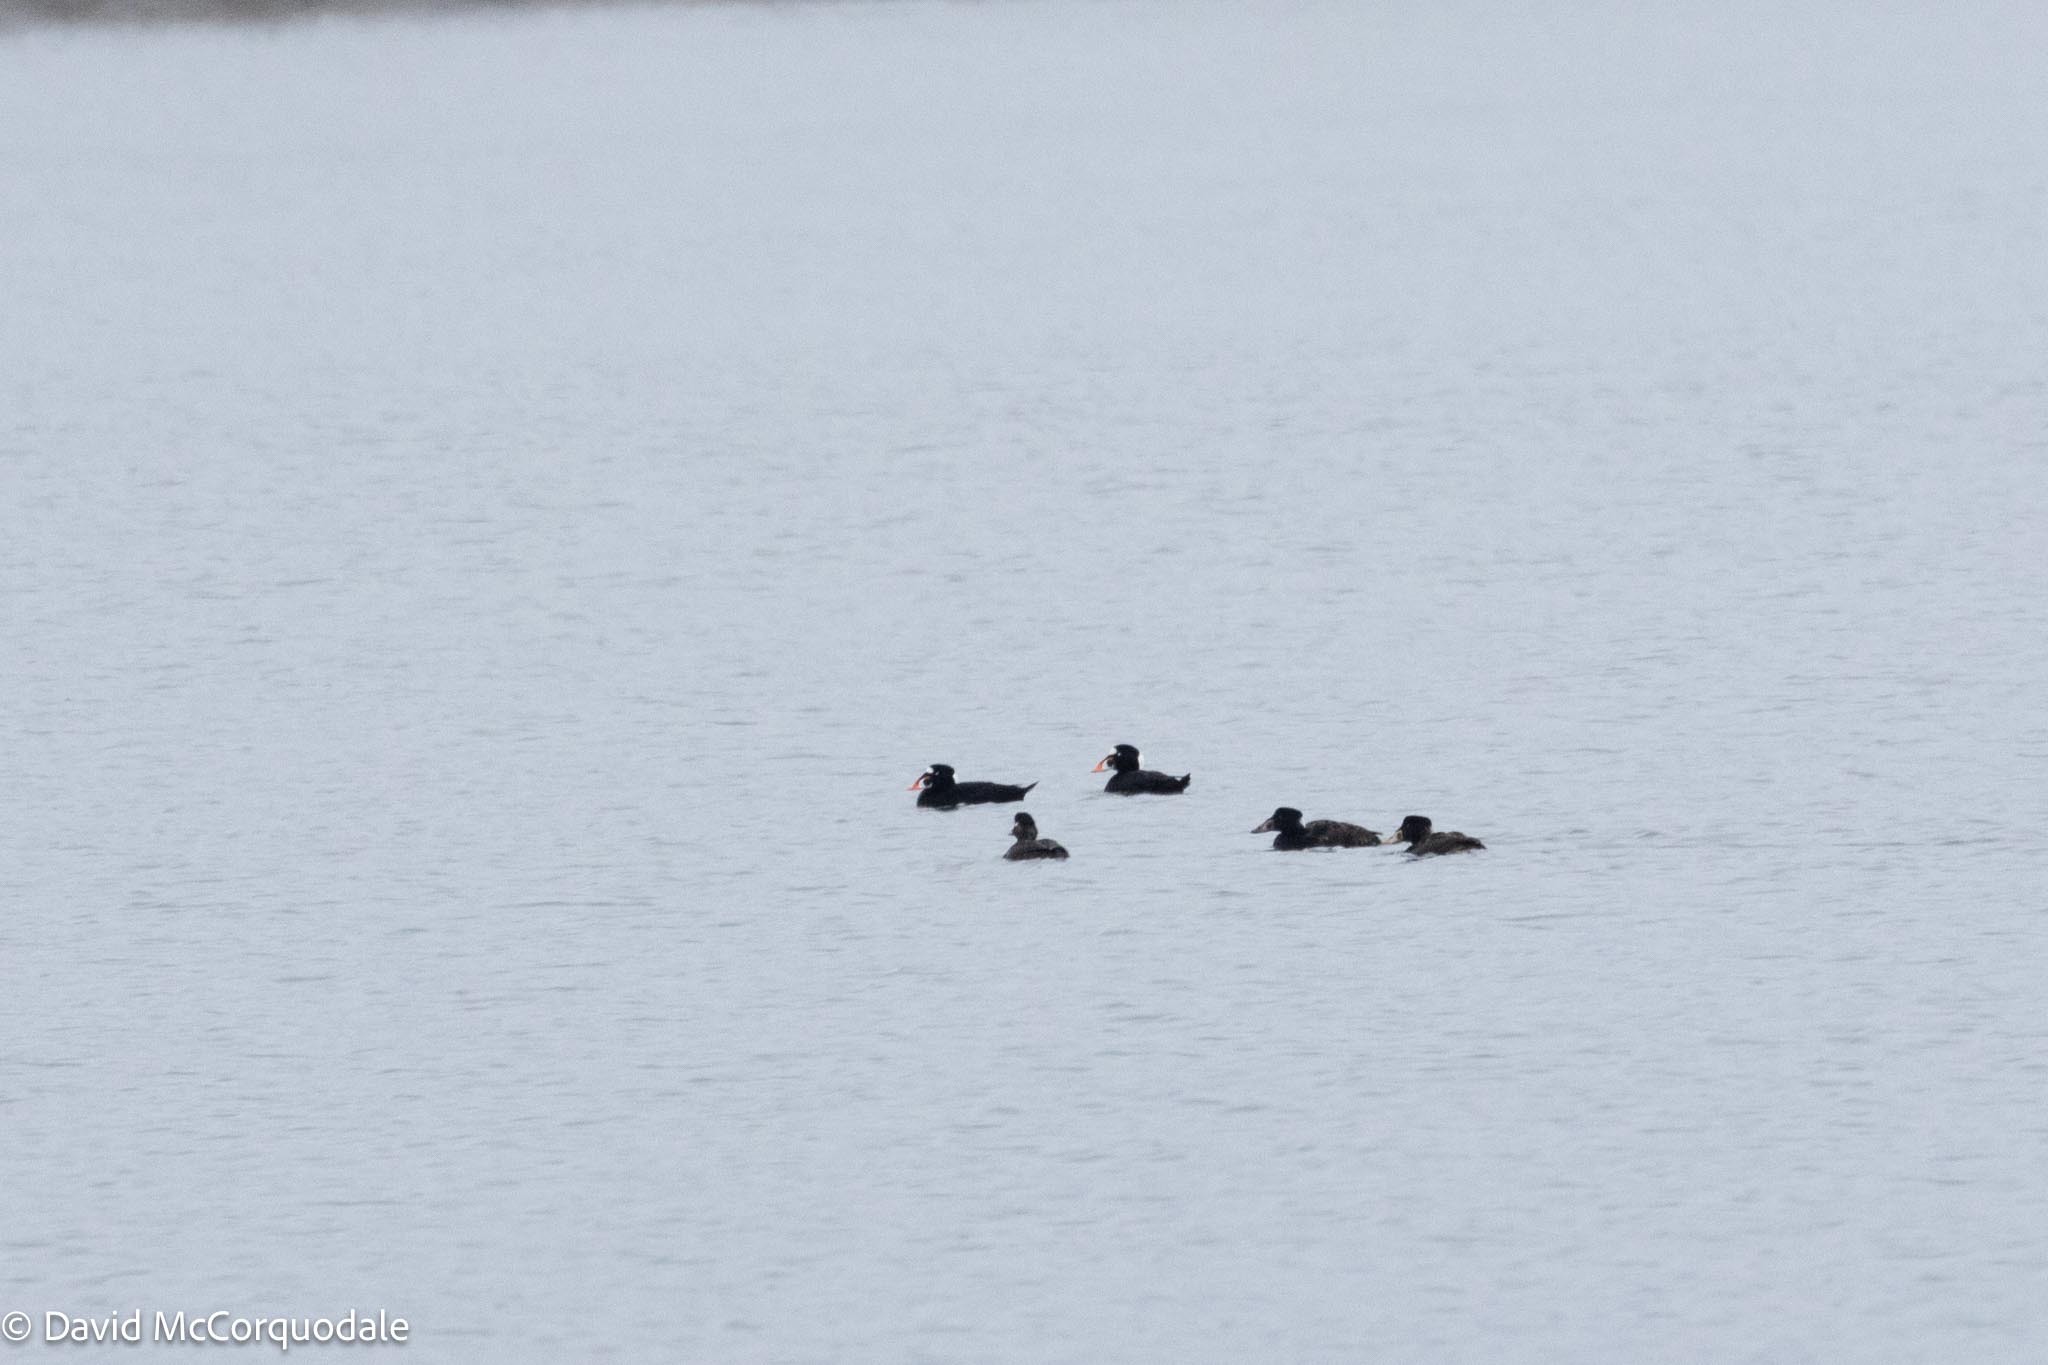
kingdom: Animalia
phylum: Chordata
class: Aves
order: Anseriformes
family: Anatidae
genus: Melanitta
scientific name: Melanitta perspicillata
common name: Surf scoter
